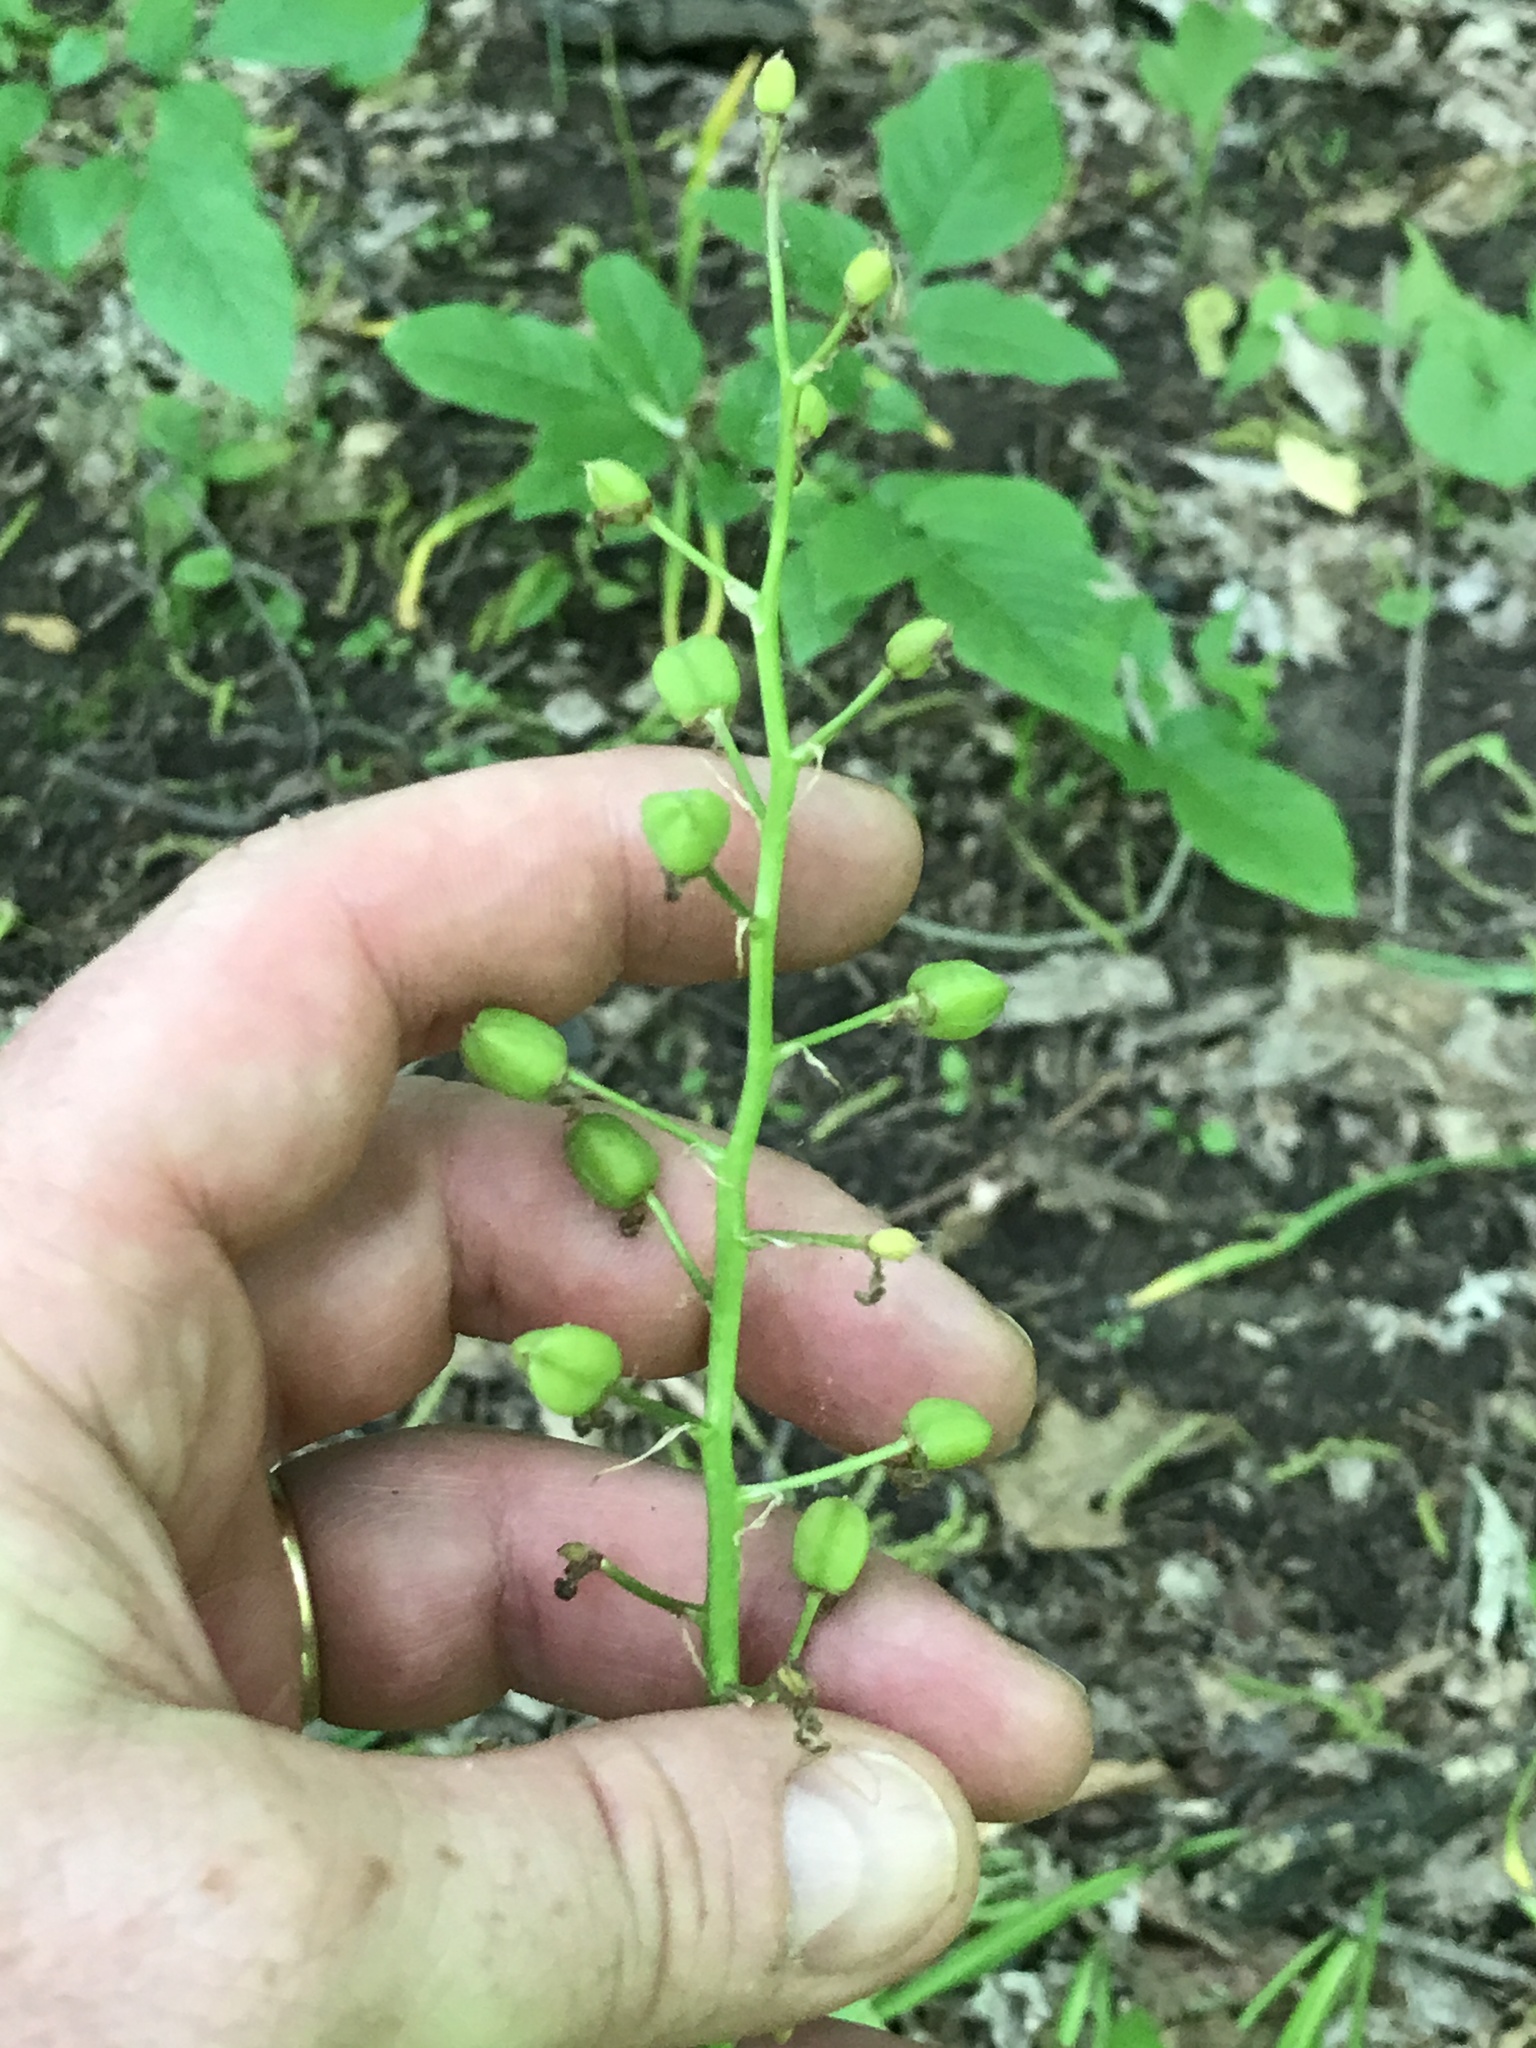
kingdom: Plantae
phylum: Tracheophyta
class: Liliopsida
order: Asparagales
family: Asparagaceae
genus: Camassia
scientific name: Camassia scilloides
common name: Wild hyacinth
